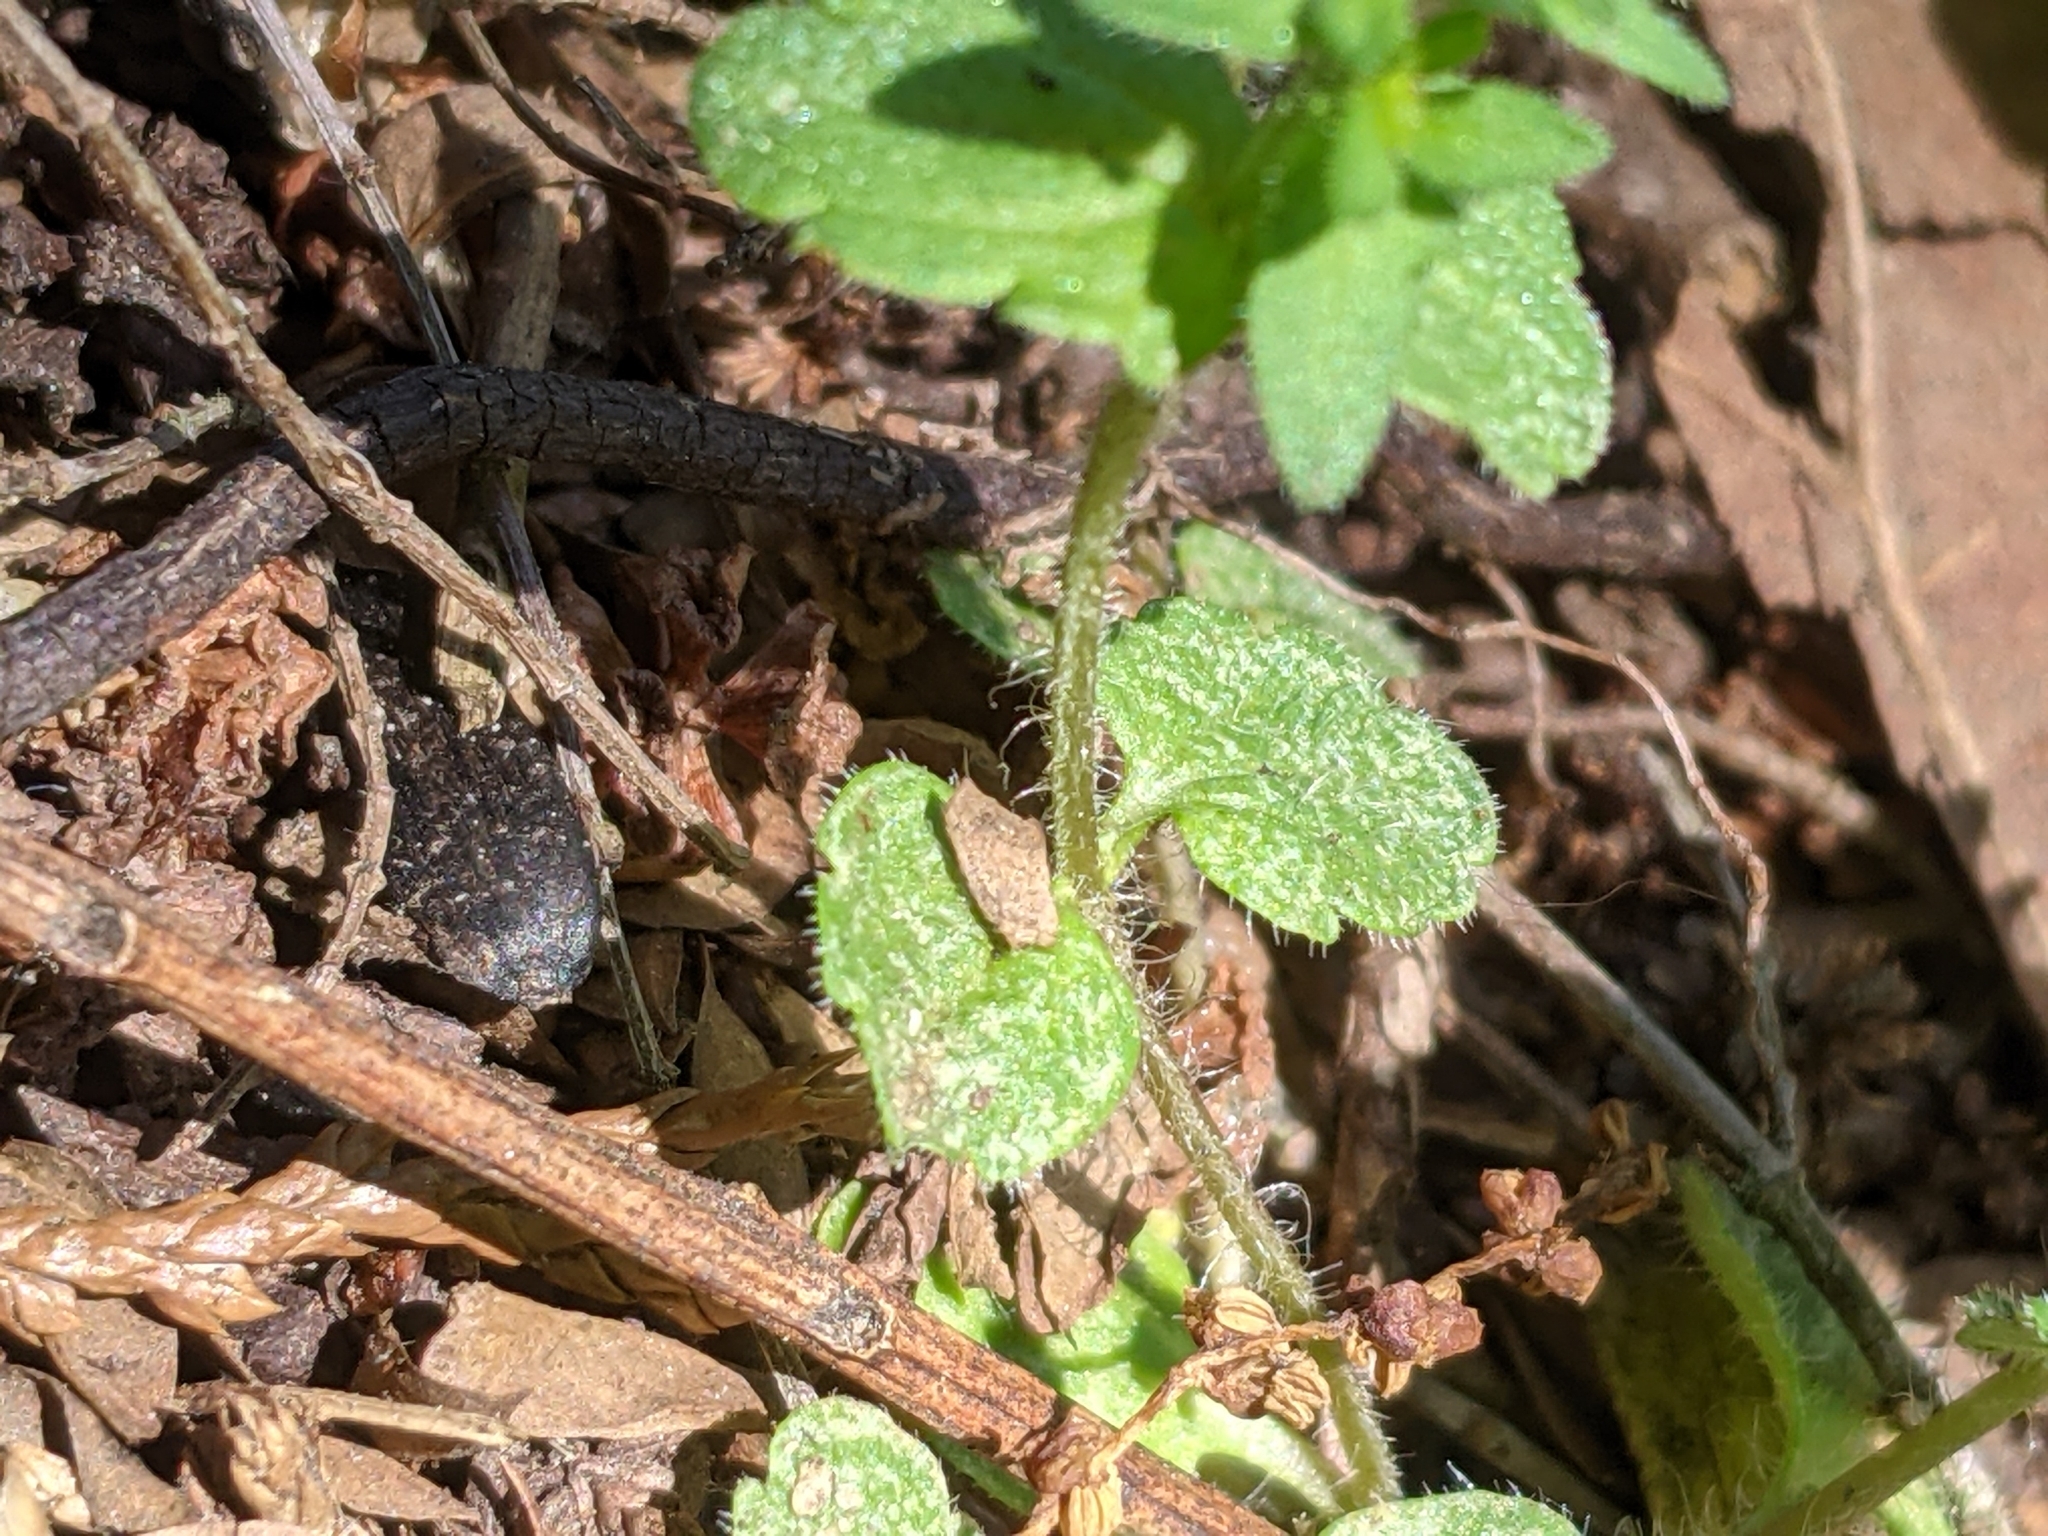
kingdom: Plantae
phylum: Tracheophyta
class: Magnoliopsida
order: Lamiales
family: Plantaginaceae
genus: Veronica
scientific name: Veronica arvensis
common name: Corn speedwell
